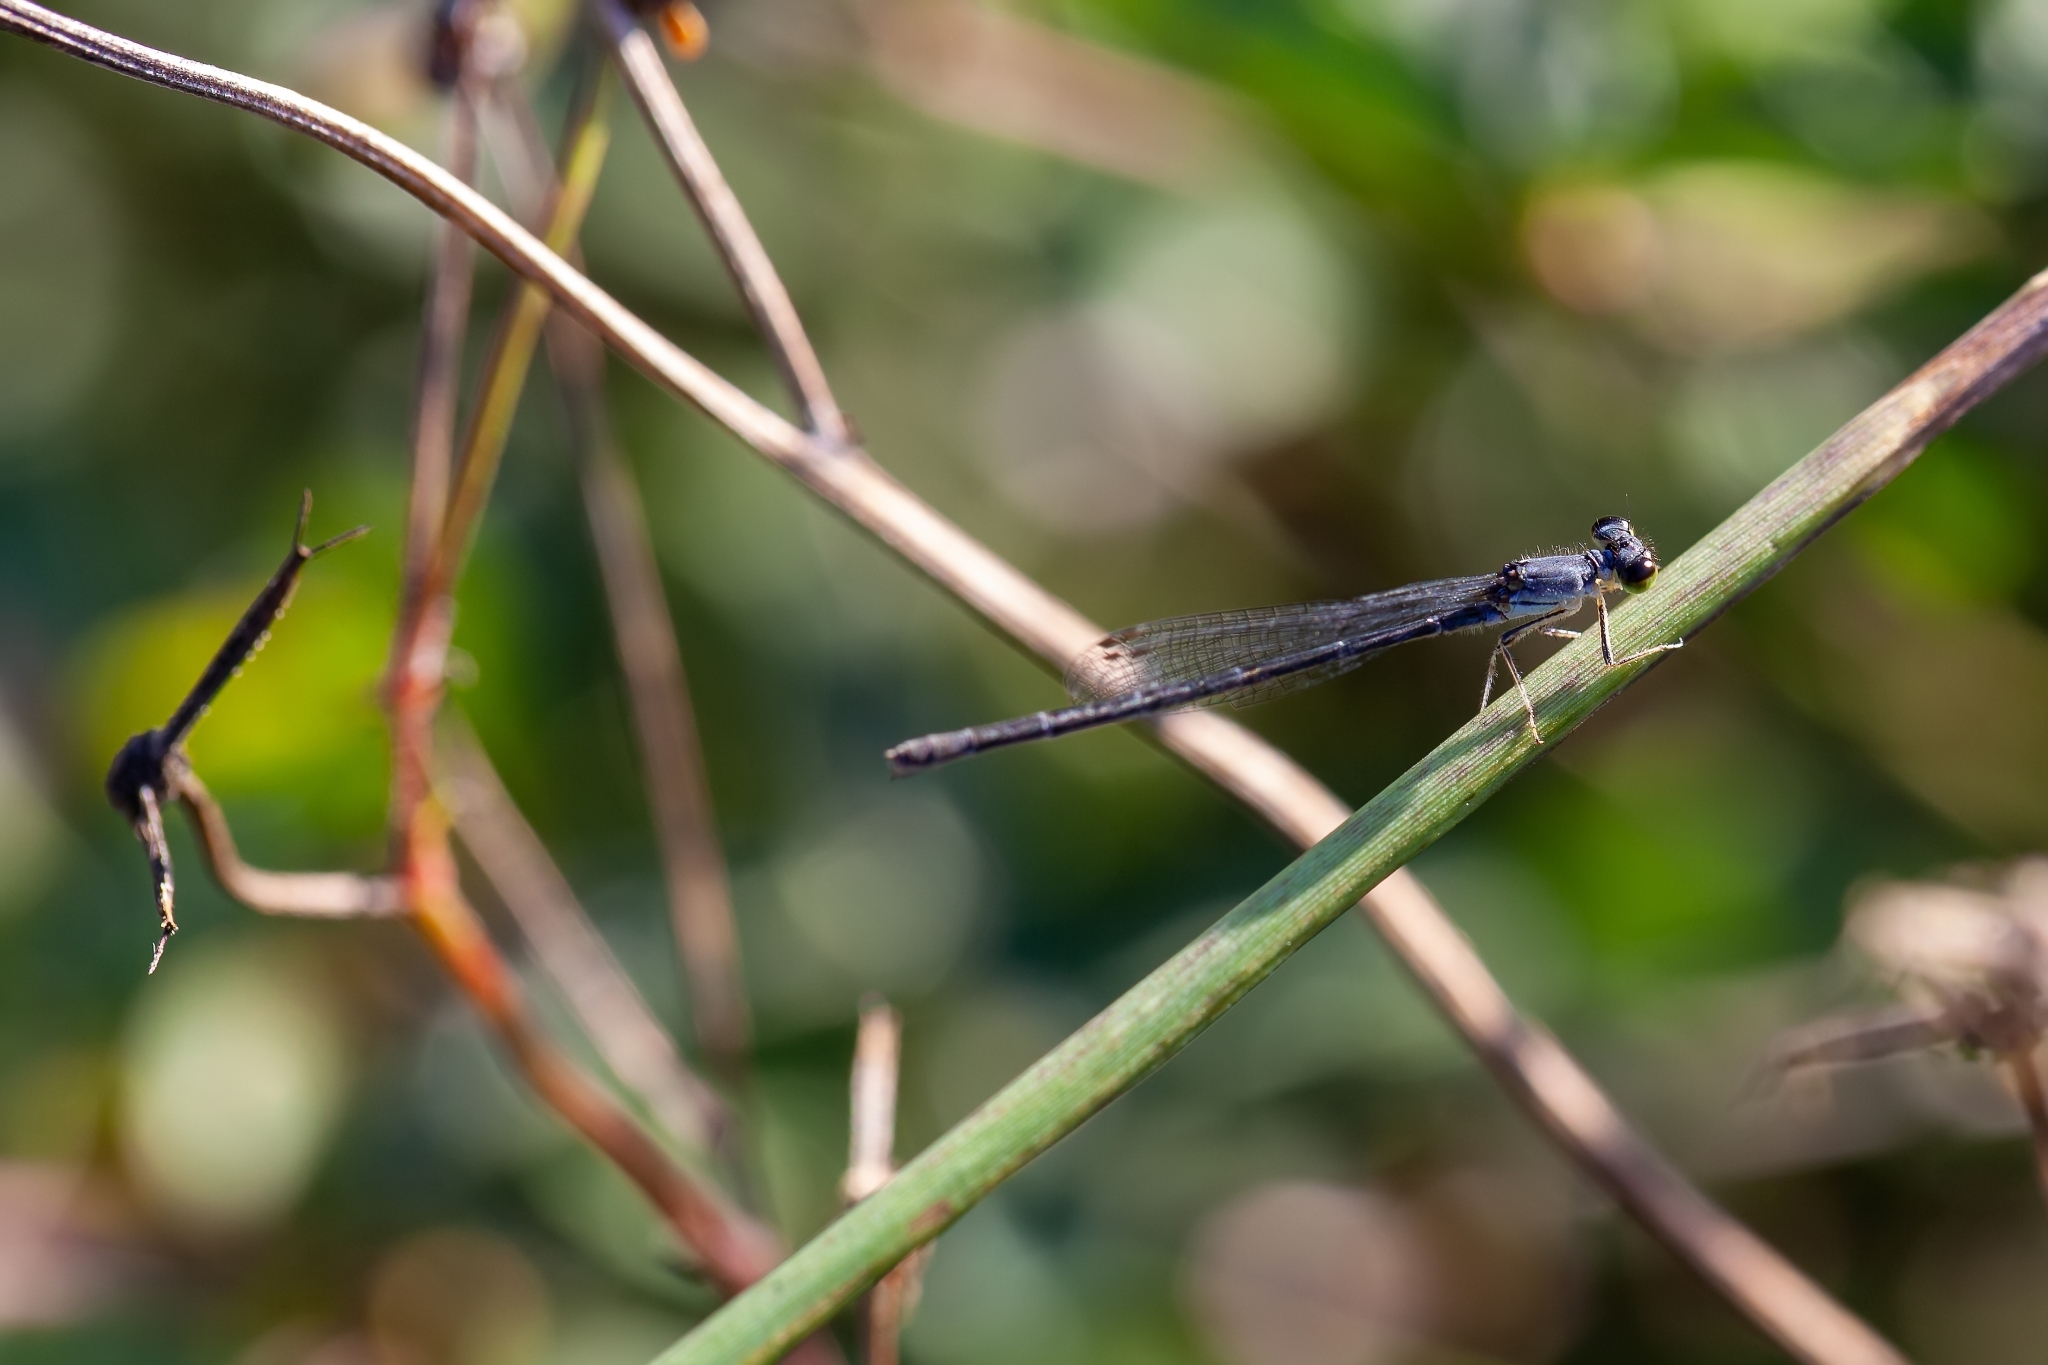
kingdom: Animalia
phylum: Arthropoda
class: Insecta
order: Odonata
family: Coenagrionidae
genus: Ischnura
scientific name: Ischnura posita
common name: Fragile forktail
